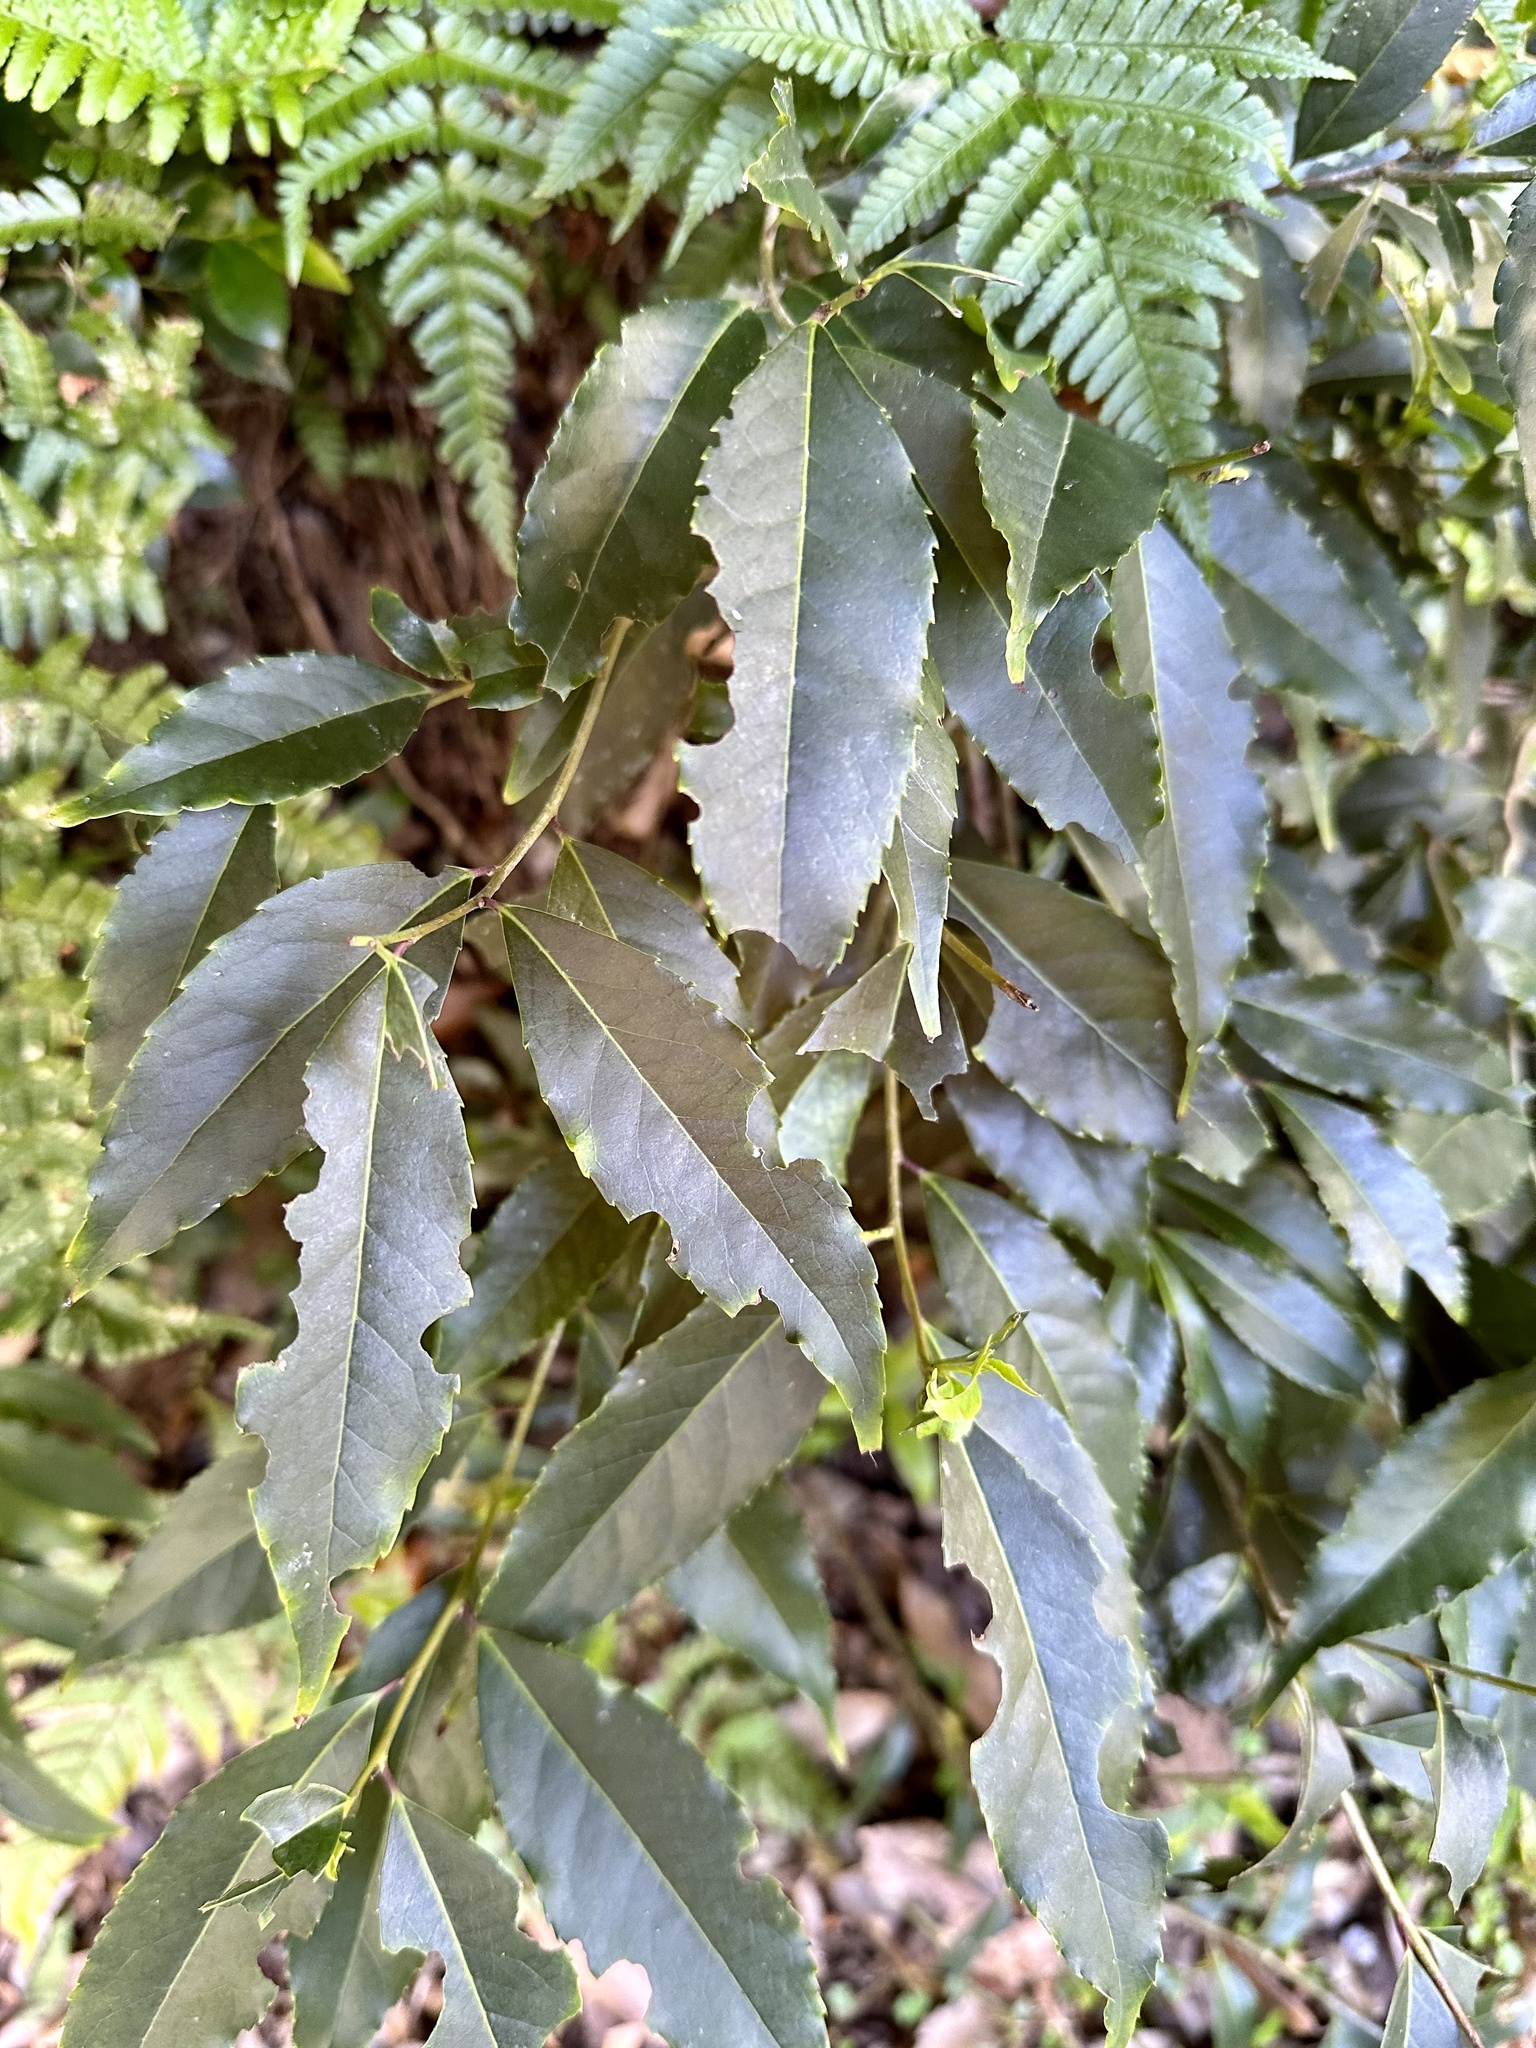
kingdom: Plantae
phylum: Tracheophyta
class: Magnoliopsida
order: Aquifoliales
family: Aquifoliaceae
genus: Ilex
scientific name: Ilex chinensis
